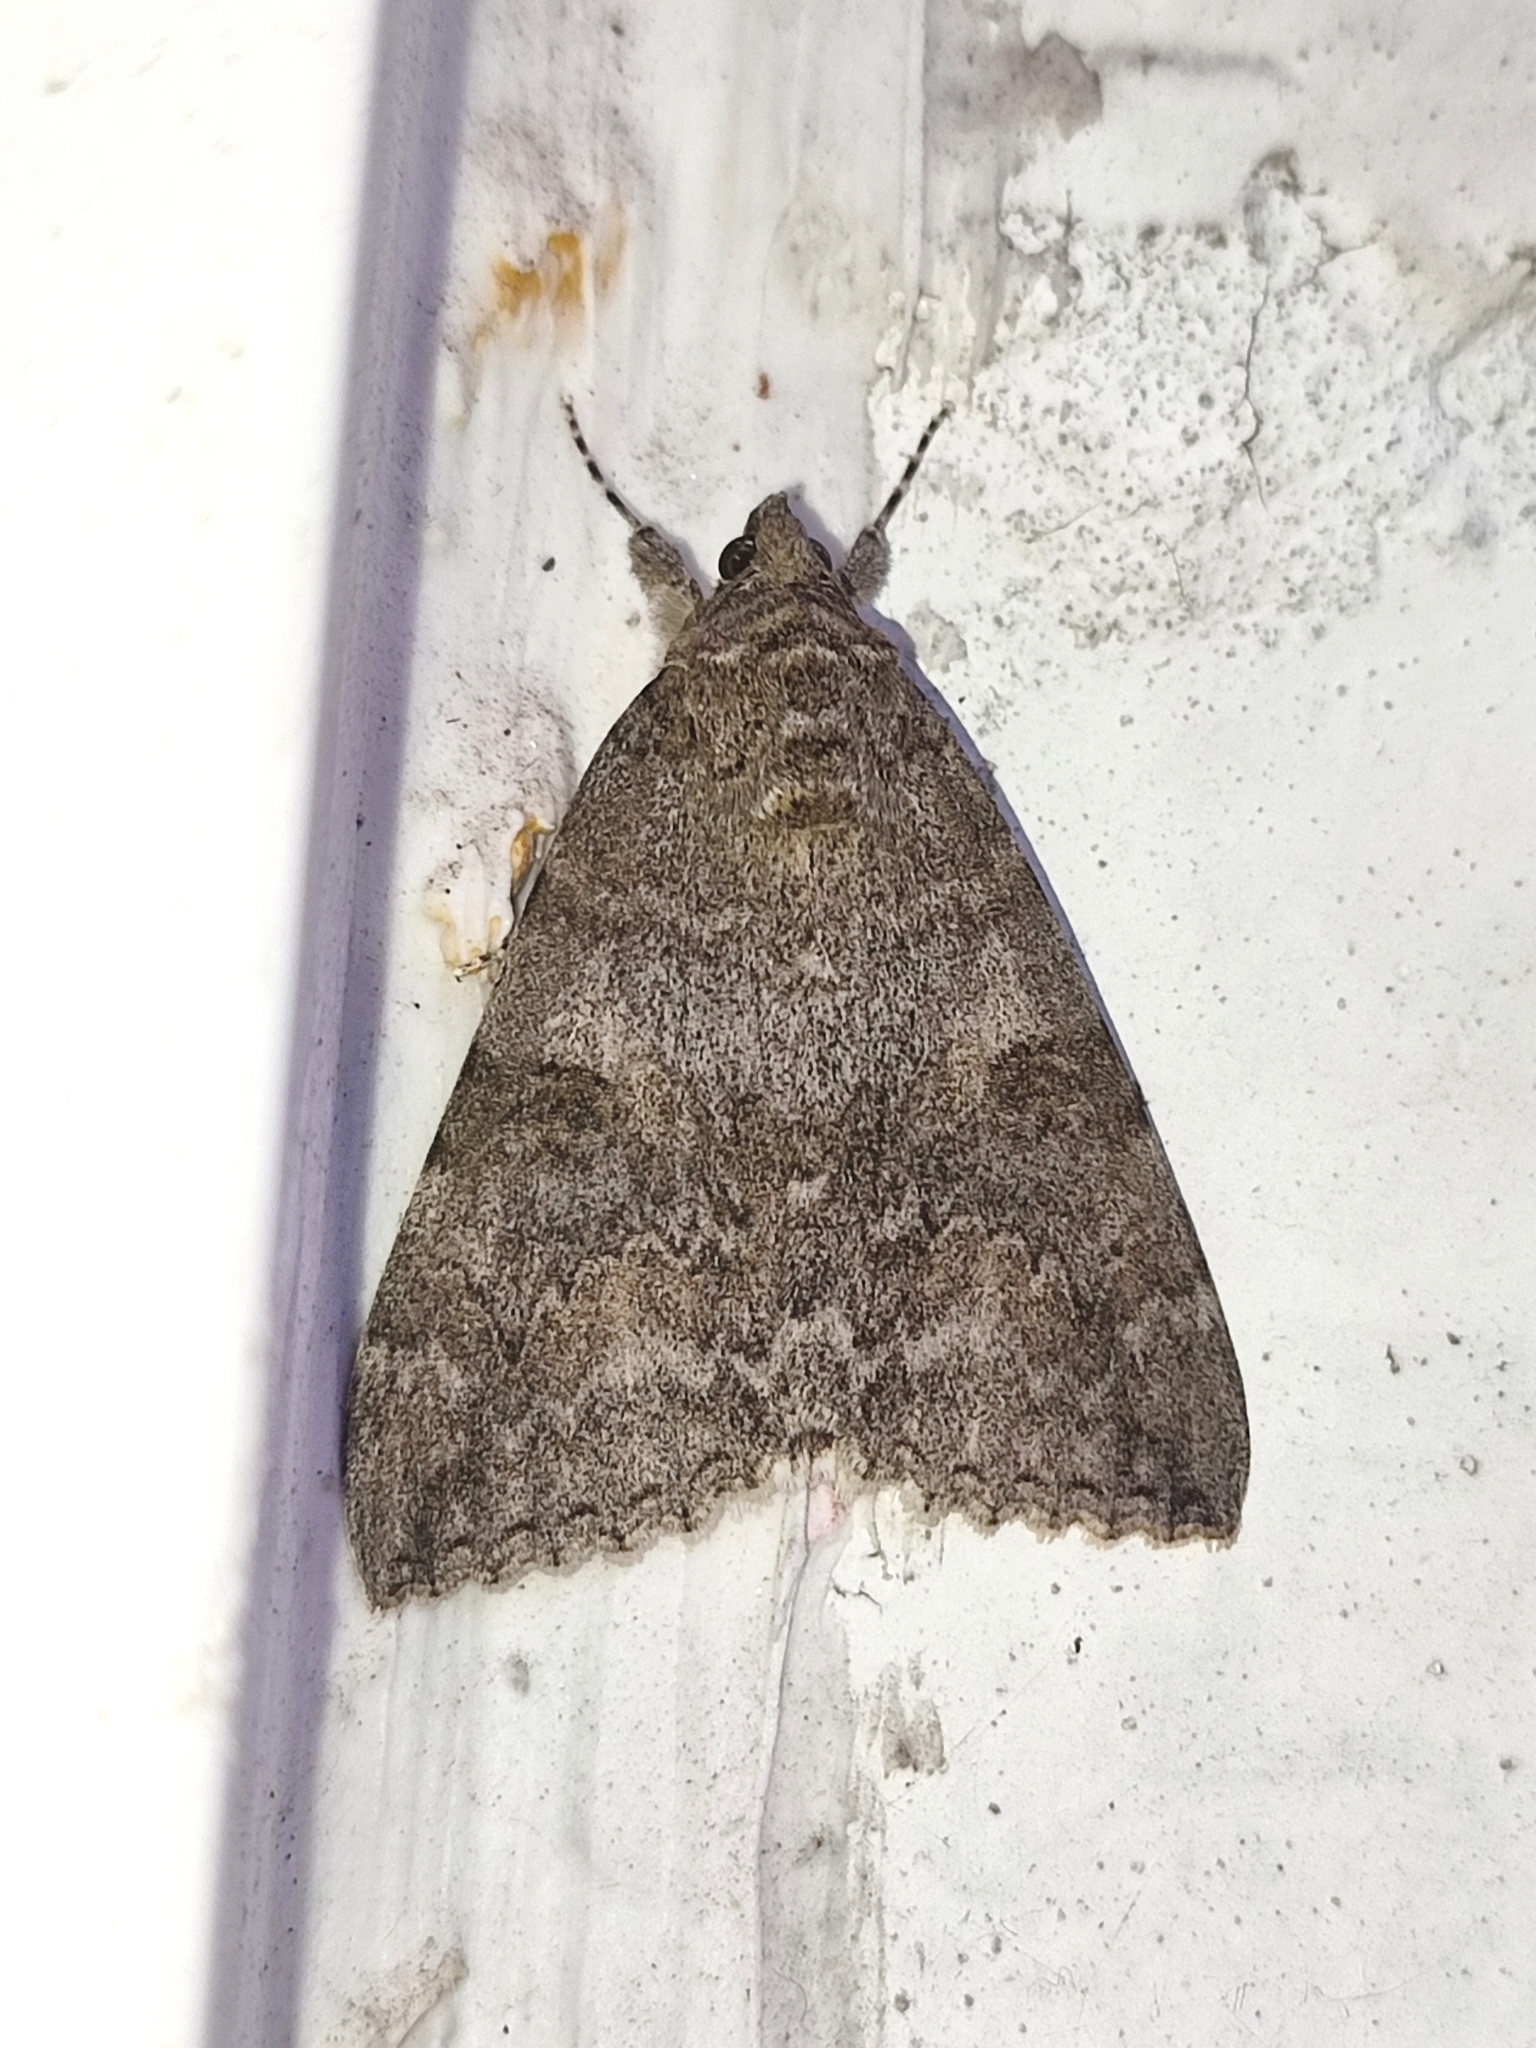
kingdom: Animalia
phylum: Arthropoda
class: Insecta
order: Lepidoptera
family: Erebidae
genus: Catocala
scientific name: Catocala nupta
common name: Red underwing
